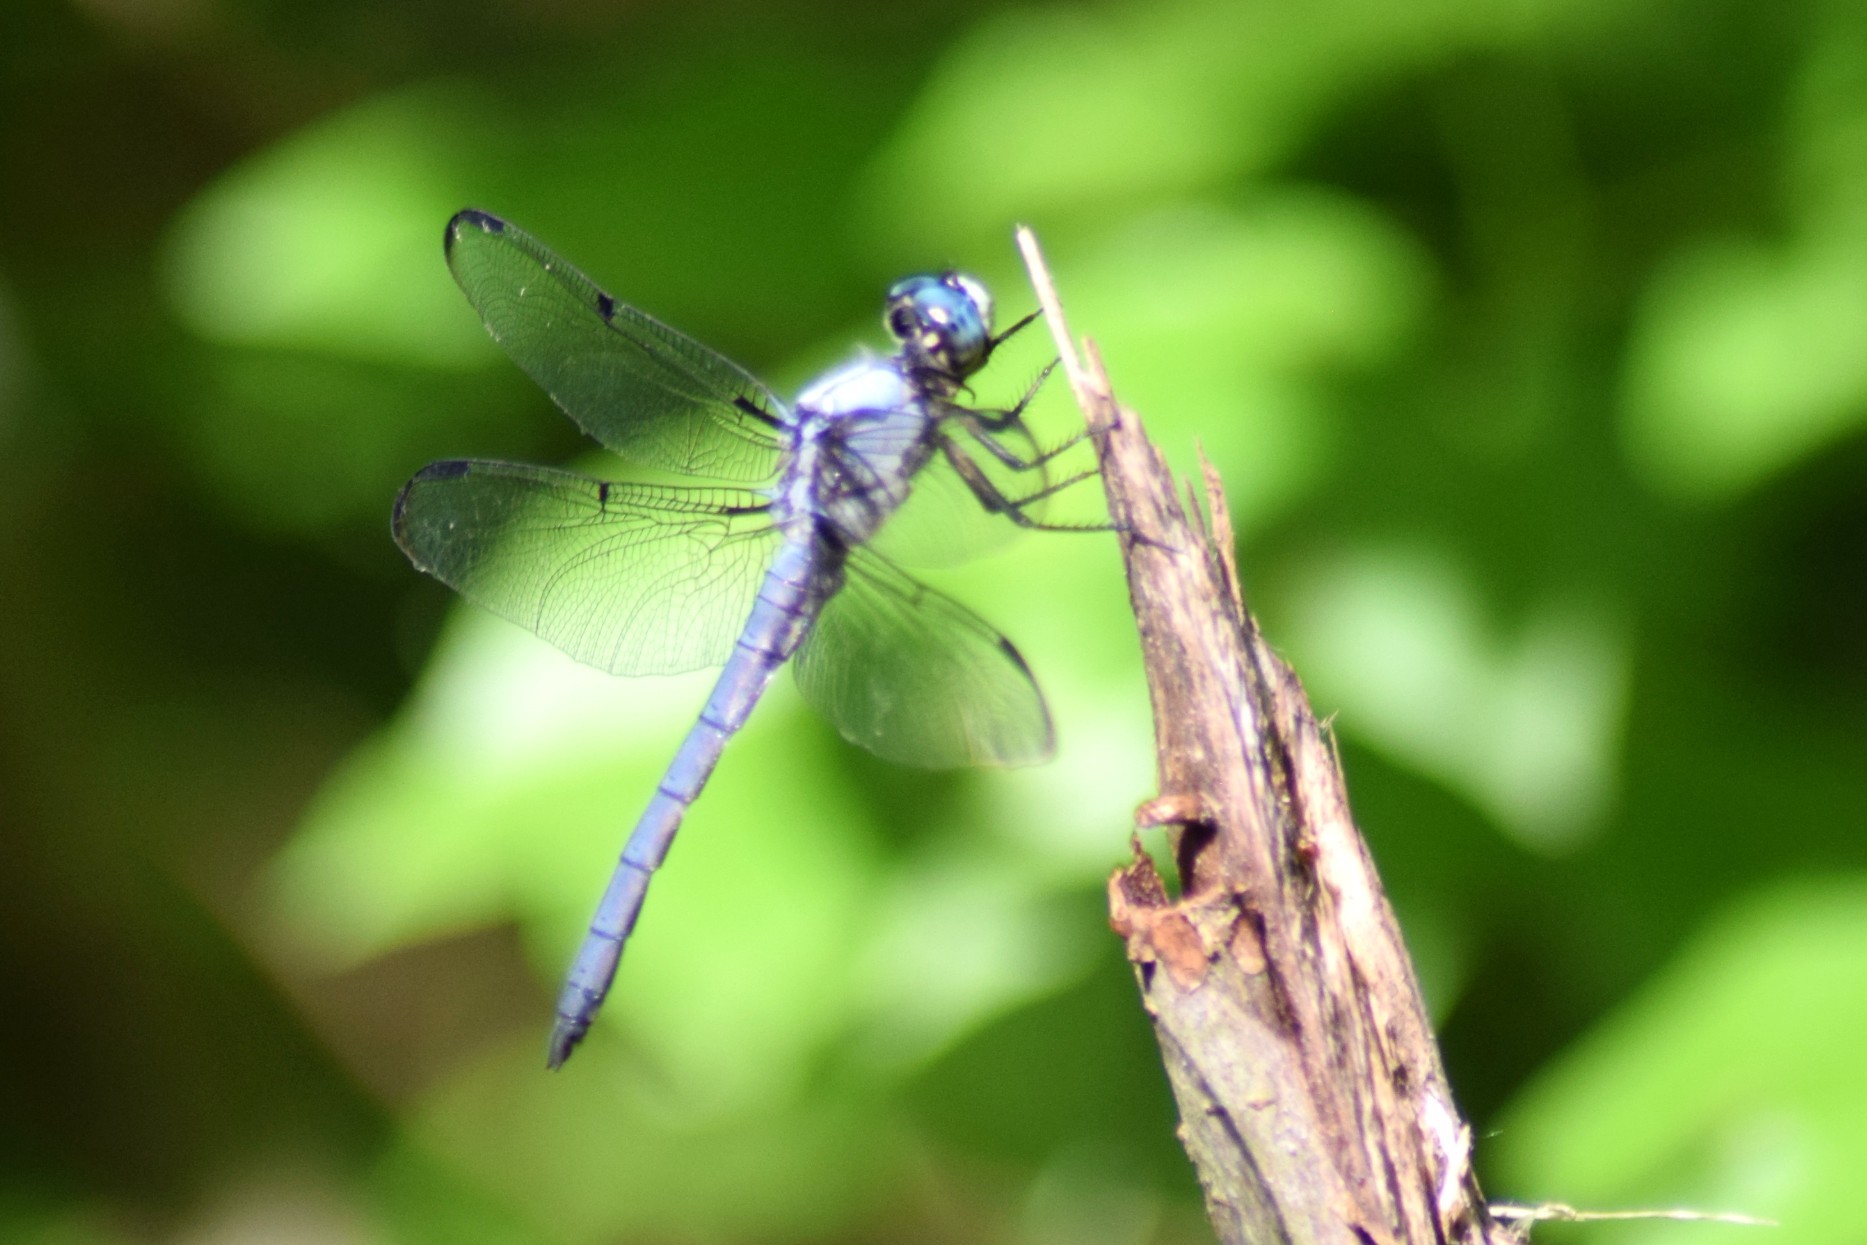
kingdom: Animalia
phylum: Arthropoda
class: Insecta
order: Odonata
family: Libellulidae
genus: Libellula
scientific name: Libellula vibrans
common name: Great blue skimmer
